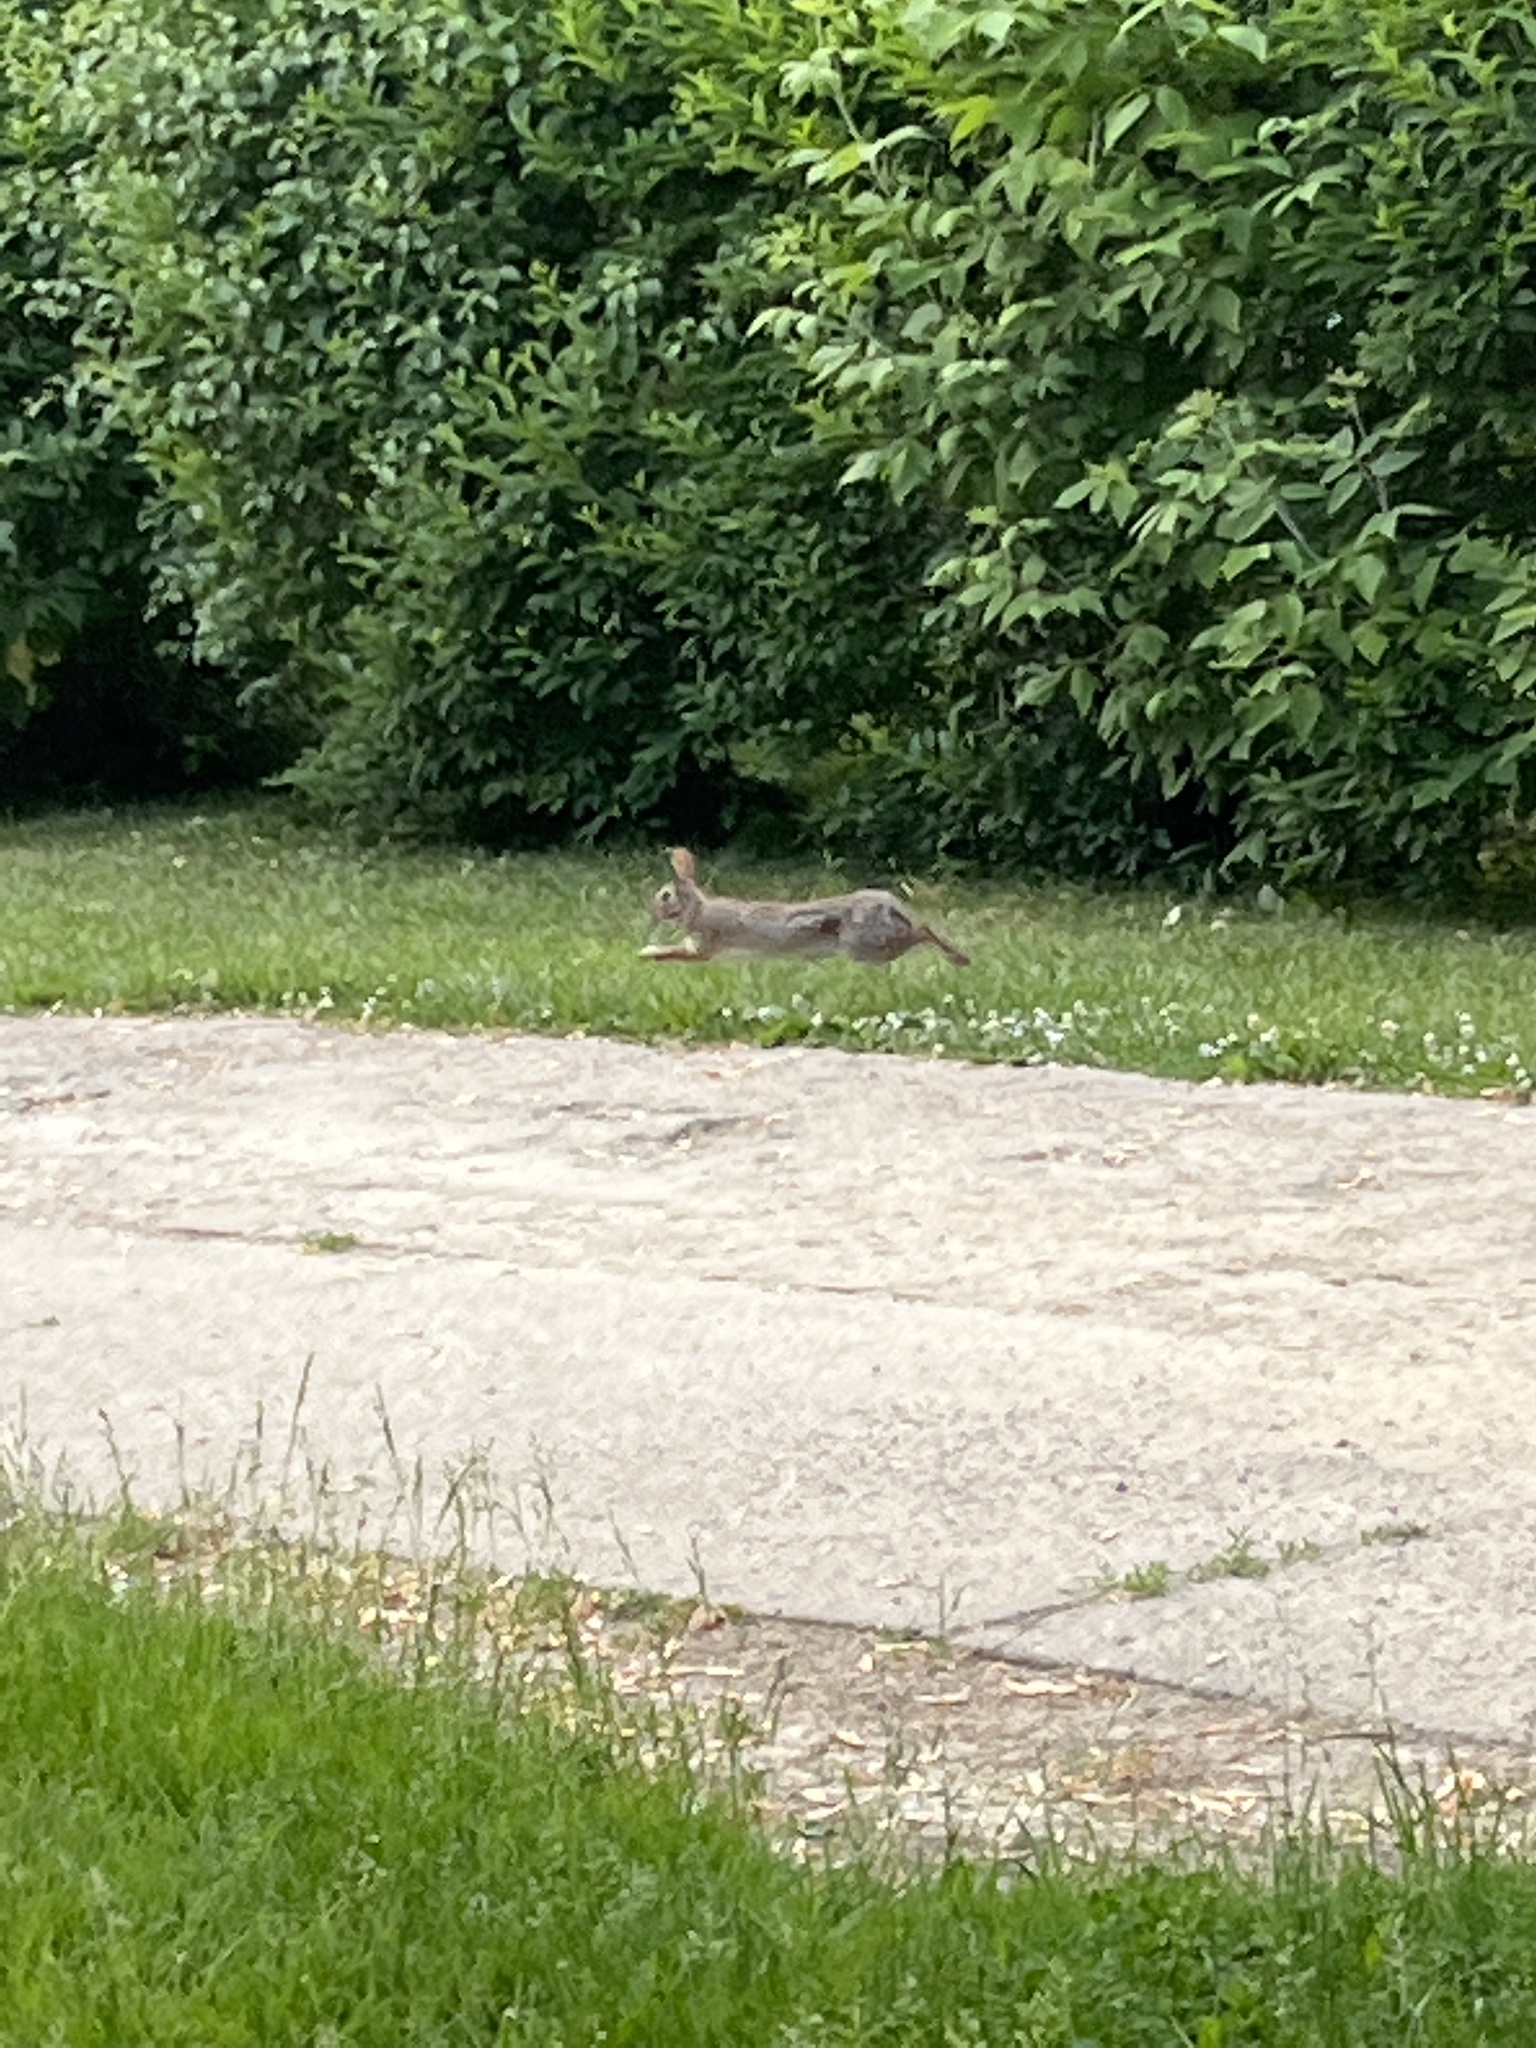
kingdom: Animalia
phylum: Chordata
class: Mammalia
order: Lagomorpha
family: Leporidae
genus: Sylvilagus
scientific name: Sylvilagus floridanus
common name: Eastern cottontail
